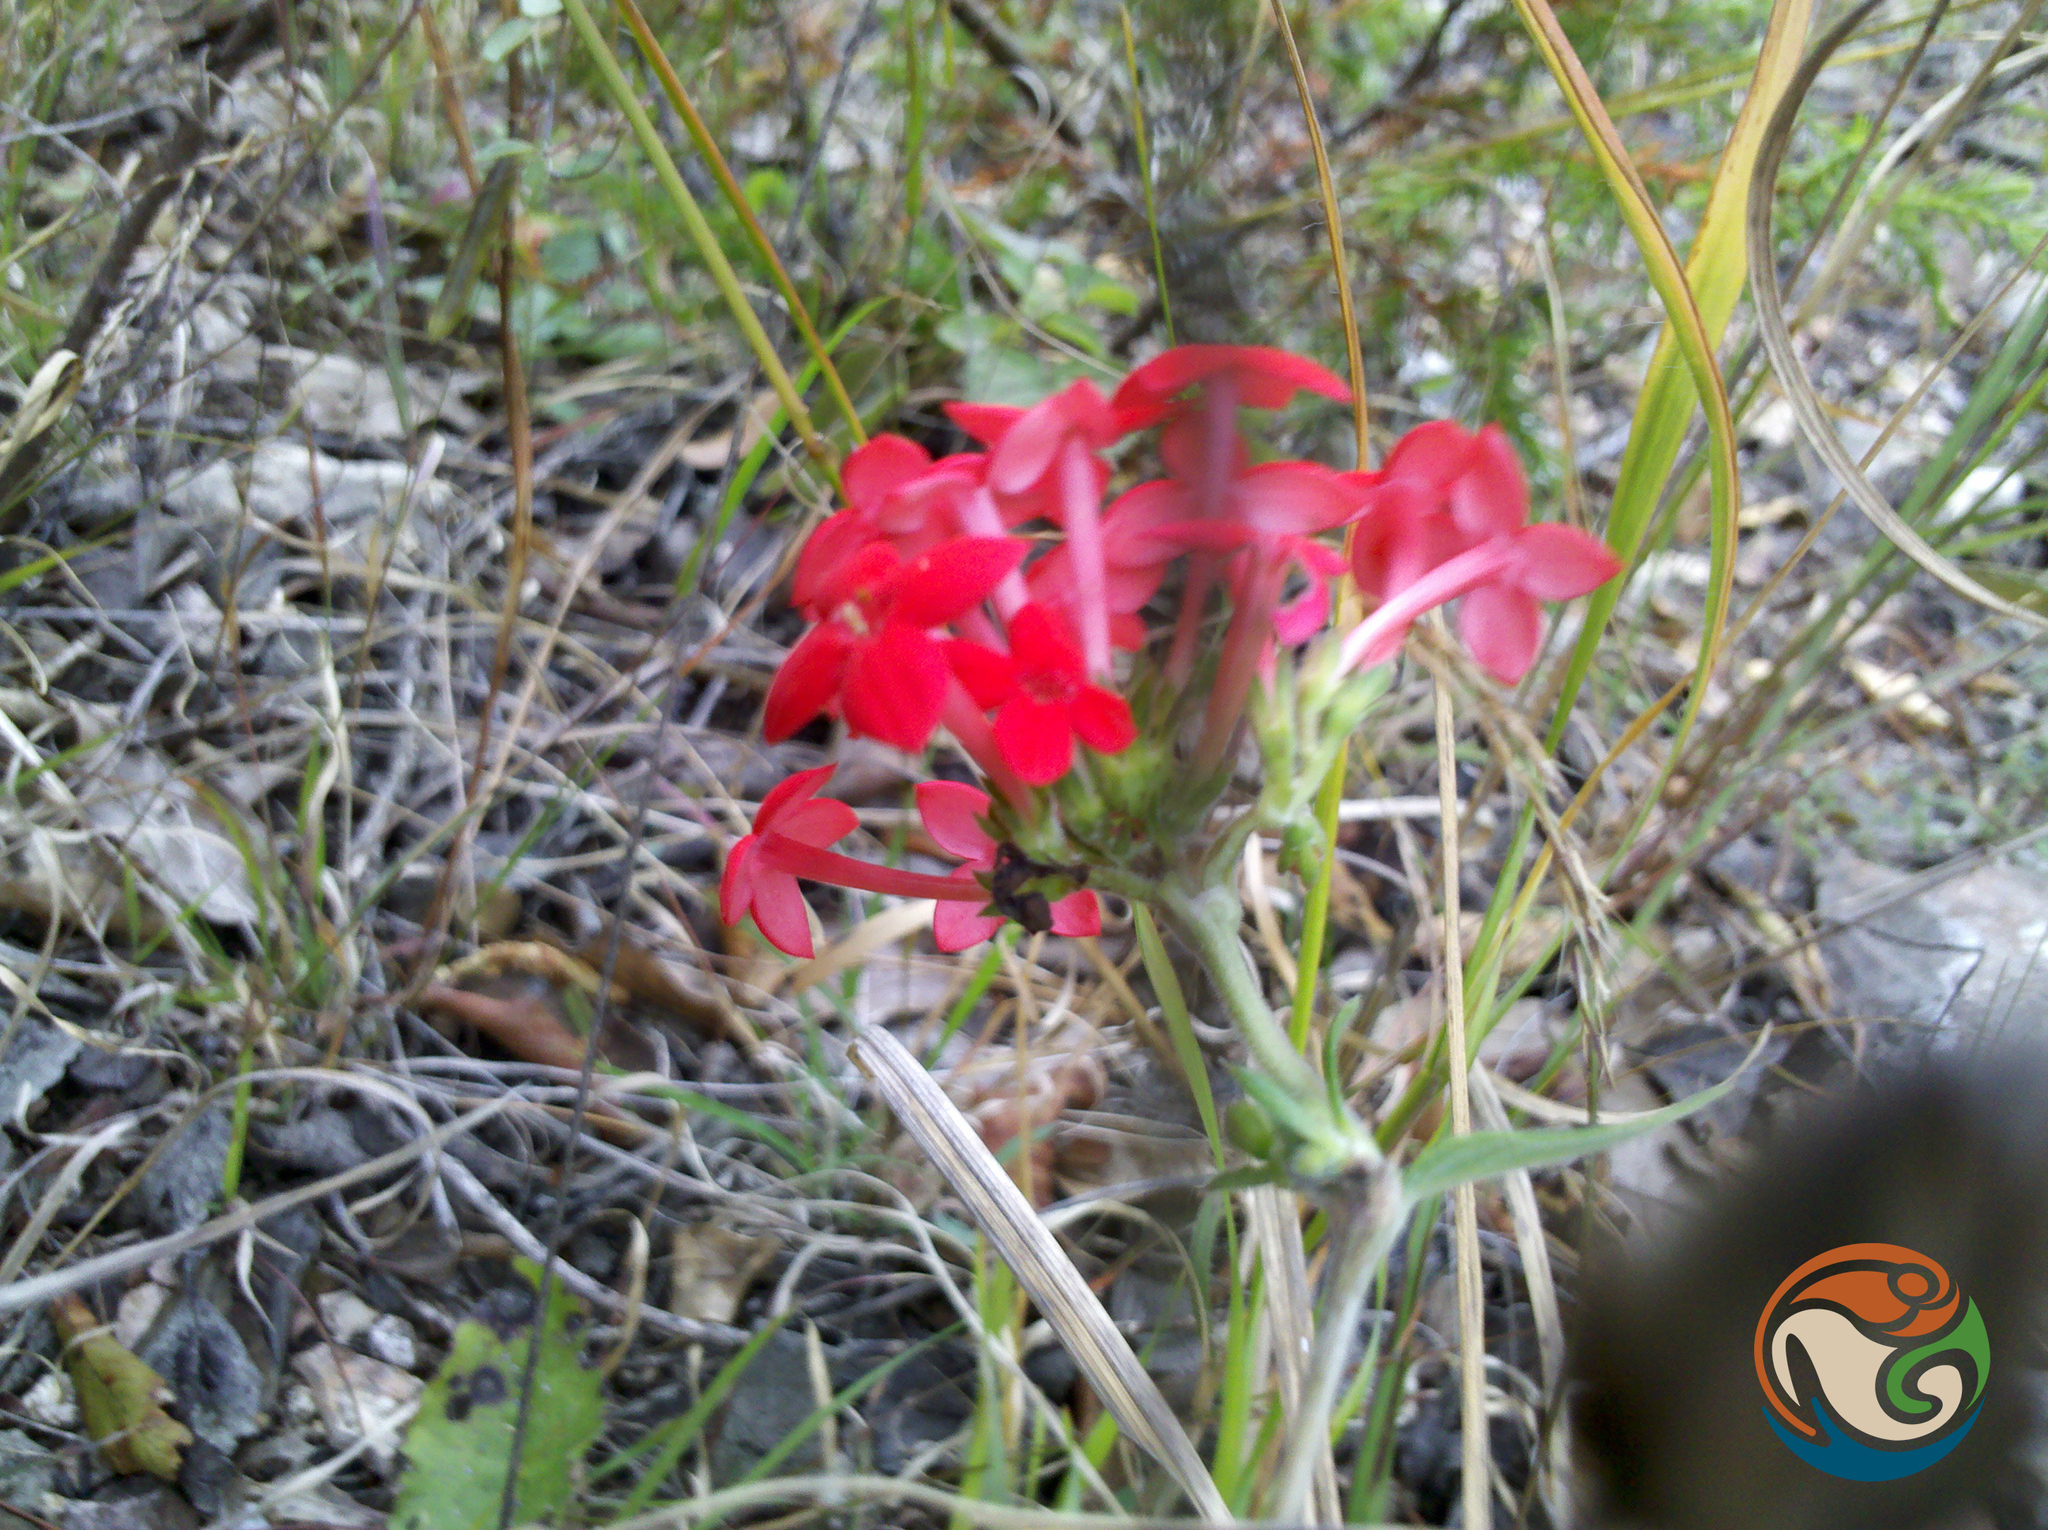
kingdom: Plantae
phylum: Tracheophyta
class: Magnoliopsida
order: Gentianales
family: Rubiaceae
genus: Bouvardia
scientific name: Bouvardia ternifolia
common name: Scarlet bouvardia
